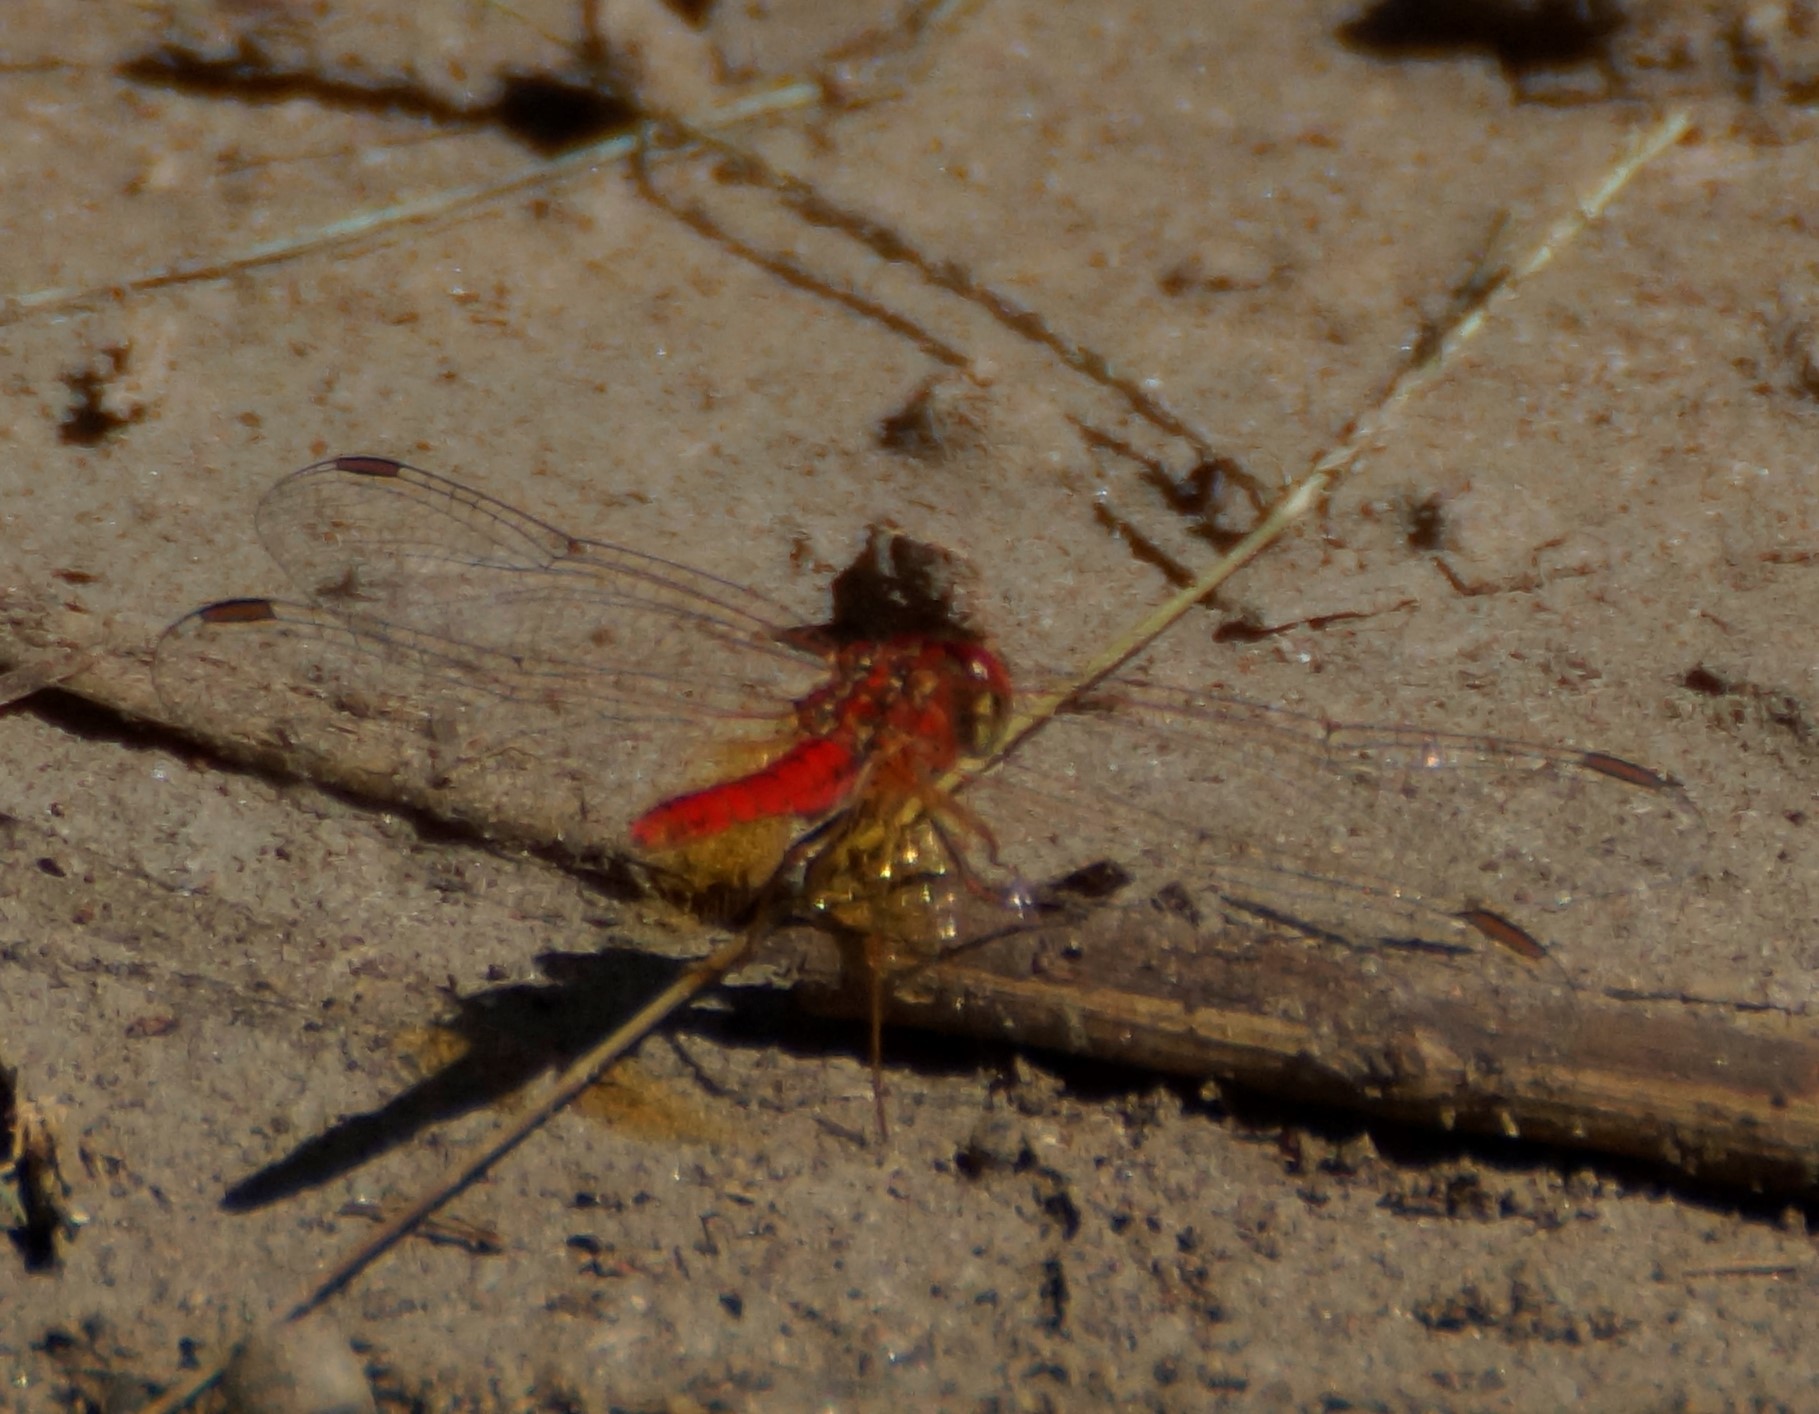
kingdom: Animalia
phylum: Arthropoda
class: Insecta
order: Odonata
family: Libellulidae
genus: Diplacodes
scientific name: Diplacodes haematodes
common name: Scarlet percher
